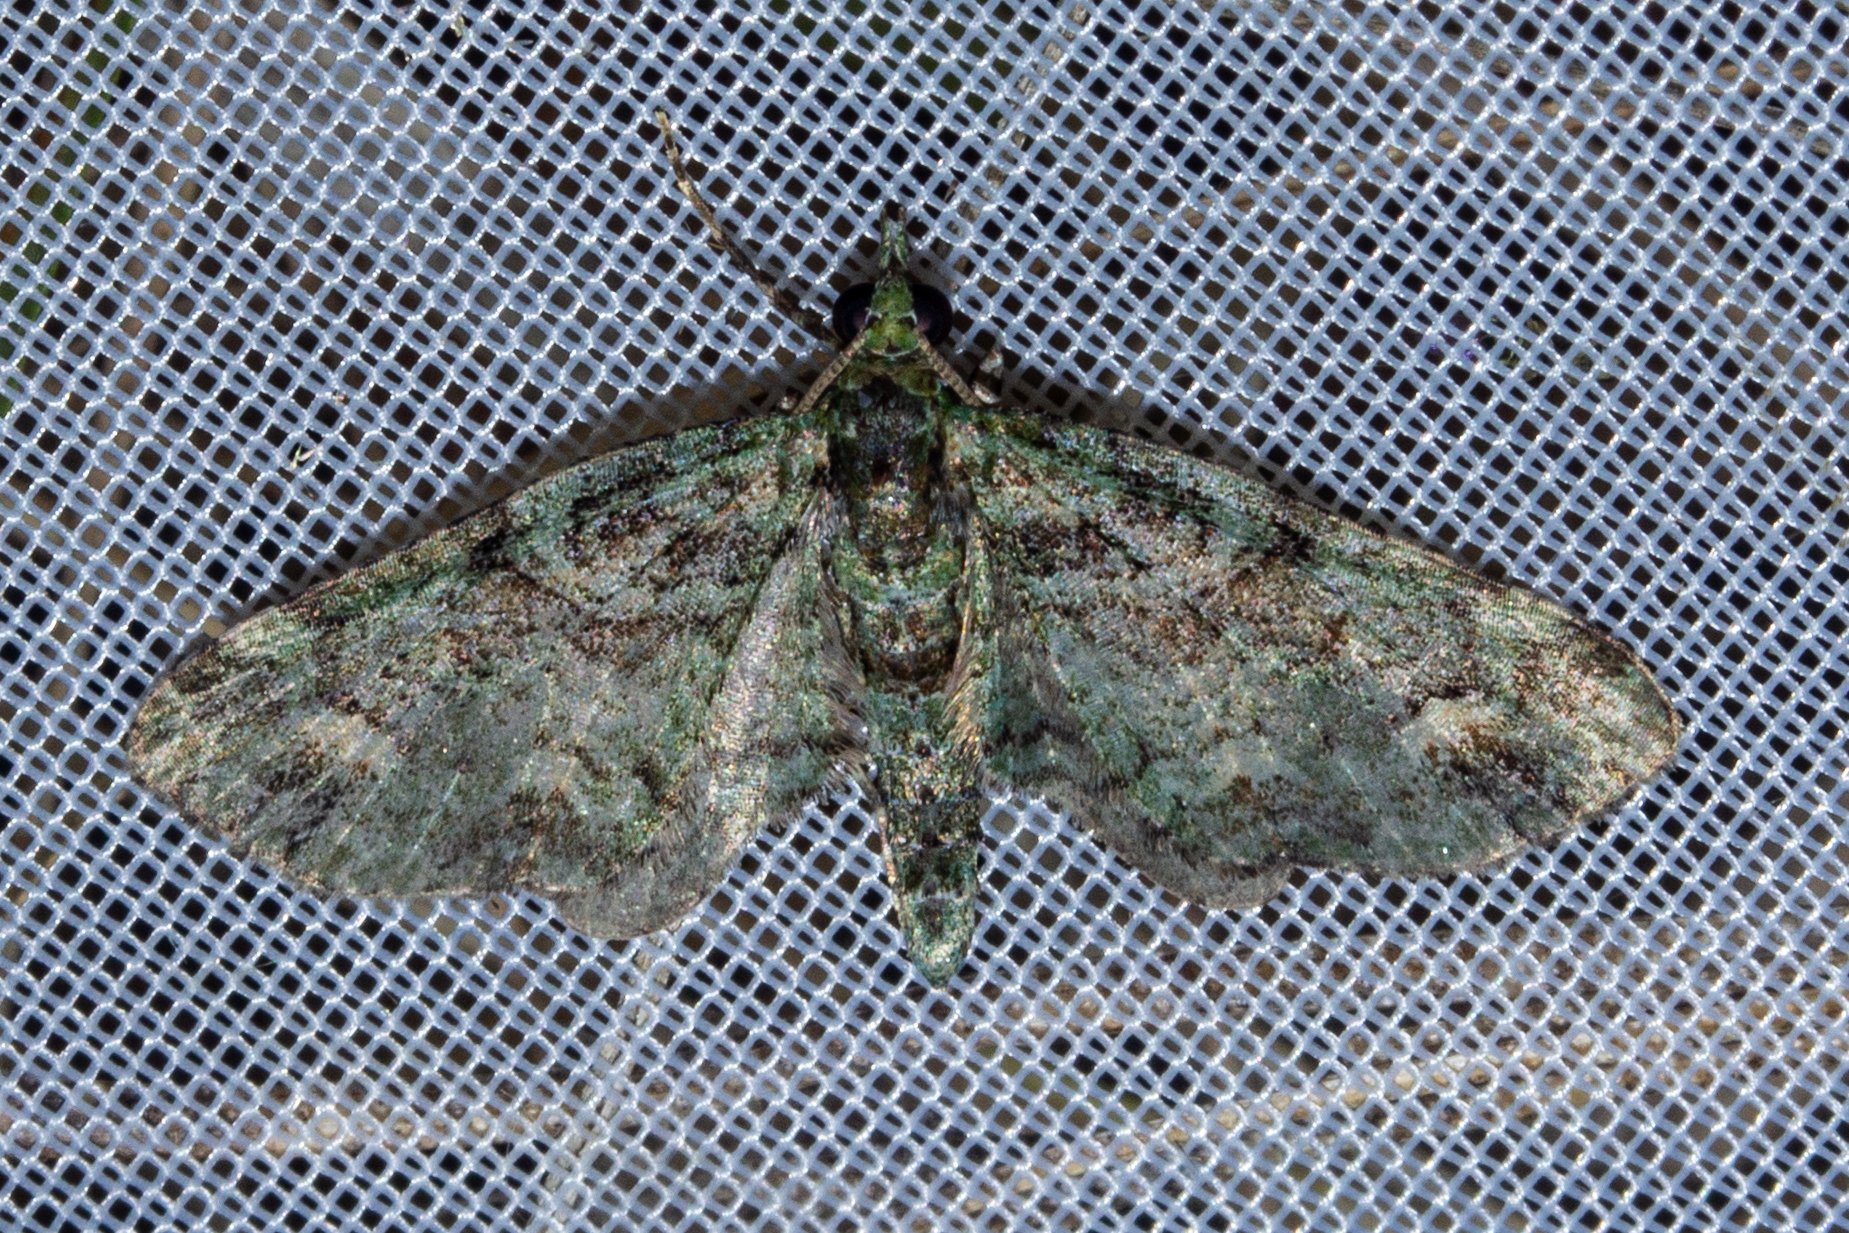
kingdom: Animalia
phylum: Arthropoda
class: Insecta
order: Lepidoptera
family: Geometridae
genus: Idaea
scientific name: Idaea mutanda
